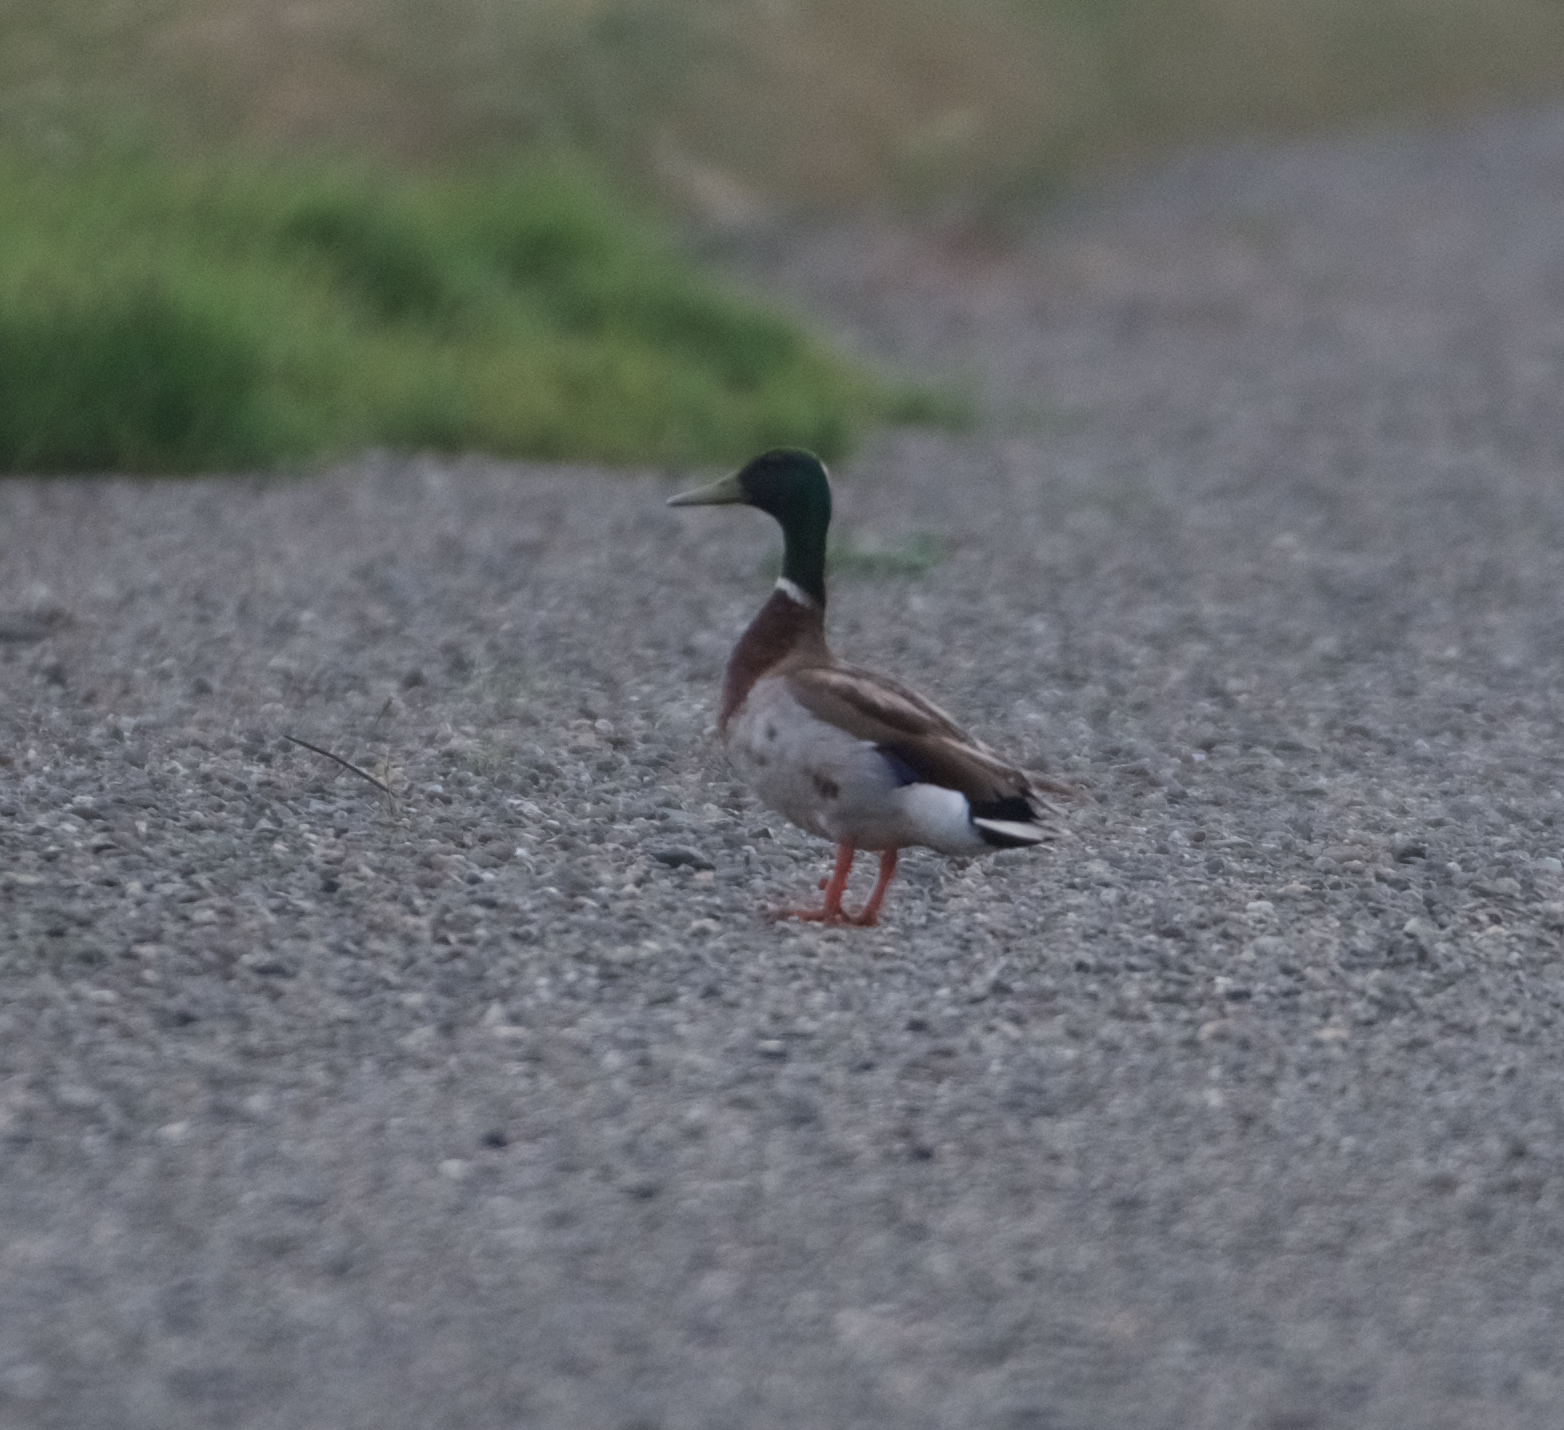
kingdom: Animalia
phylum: Chordata
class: Aves
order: Anseriformes
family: Anatidae
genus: Anas
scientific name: Anas platyrhynchos
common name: Mallard
